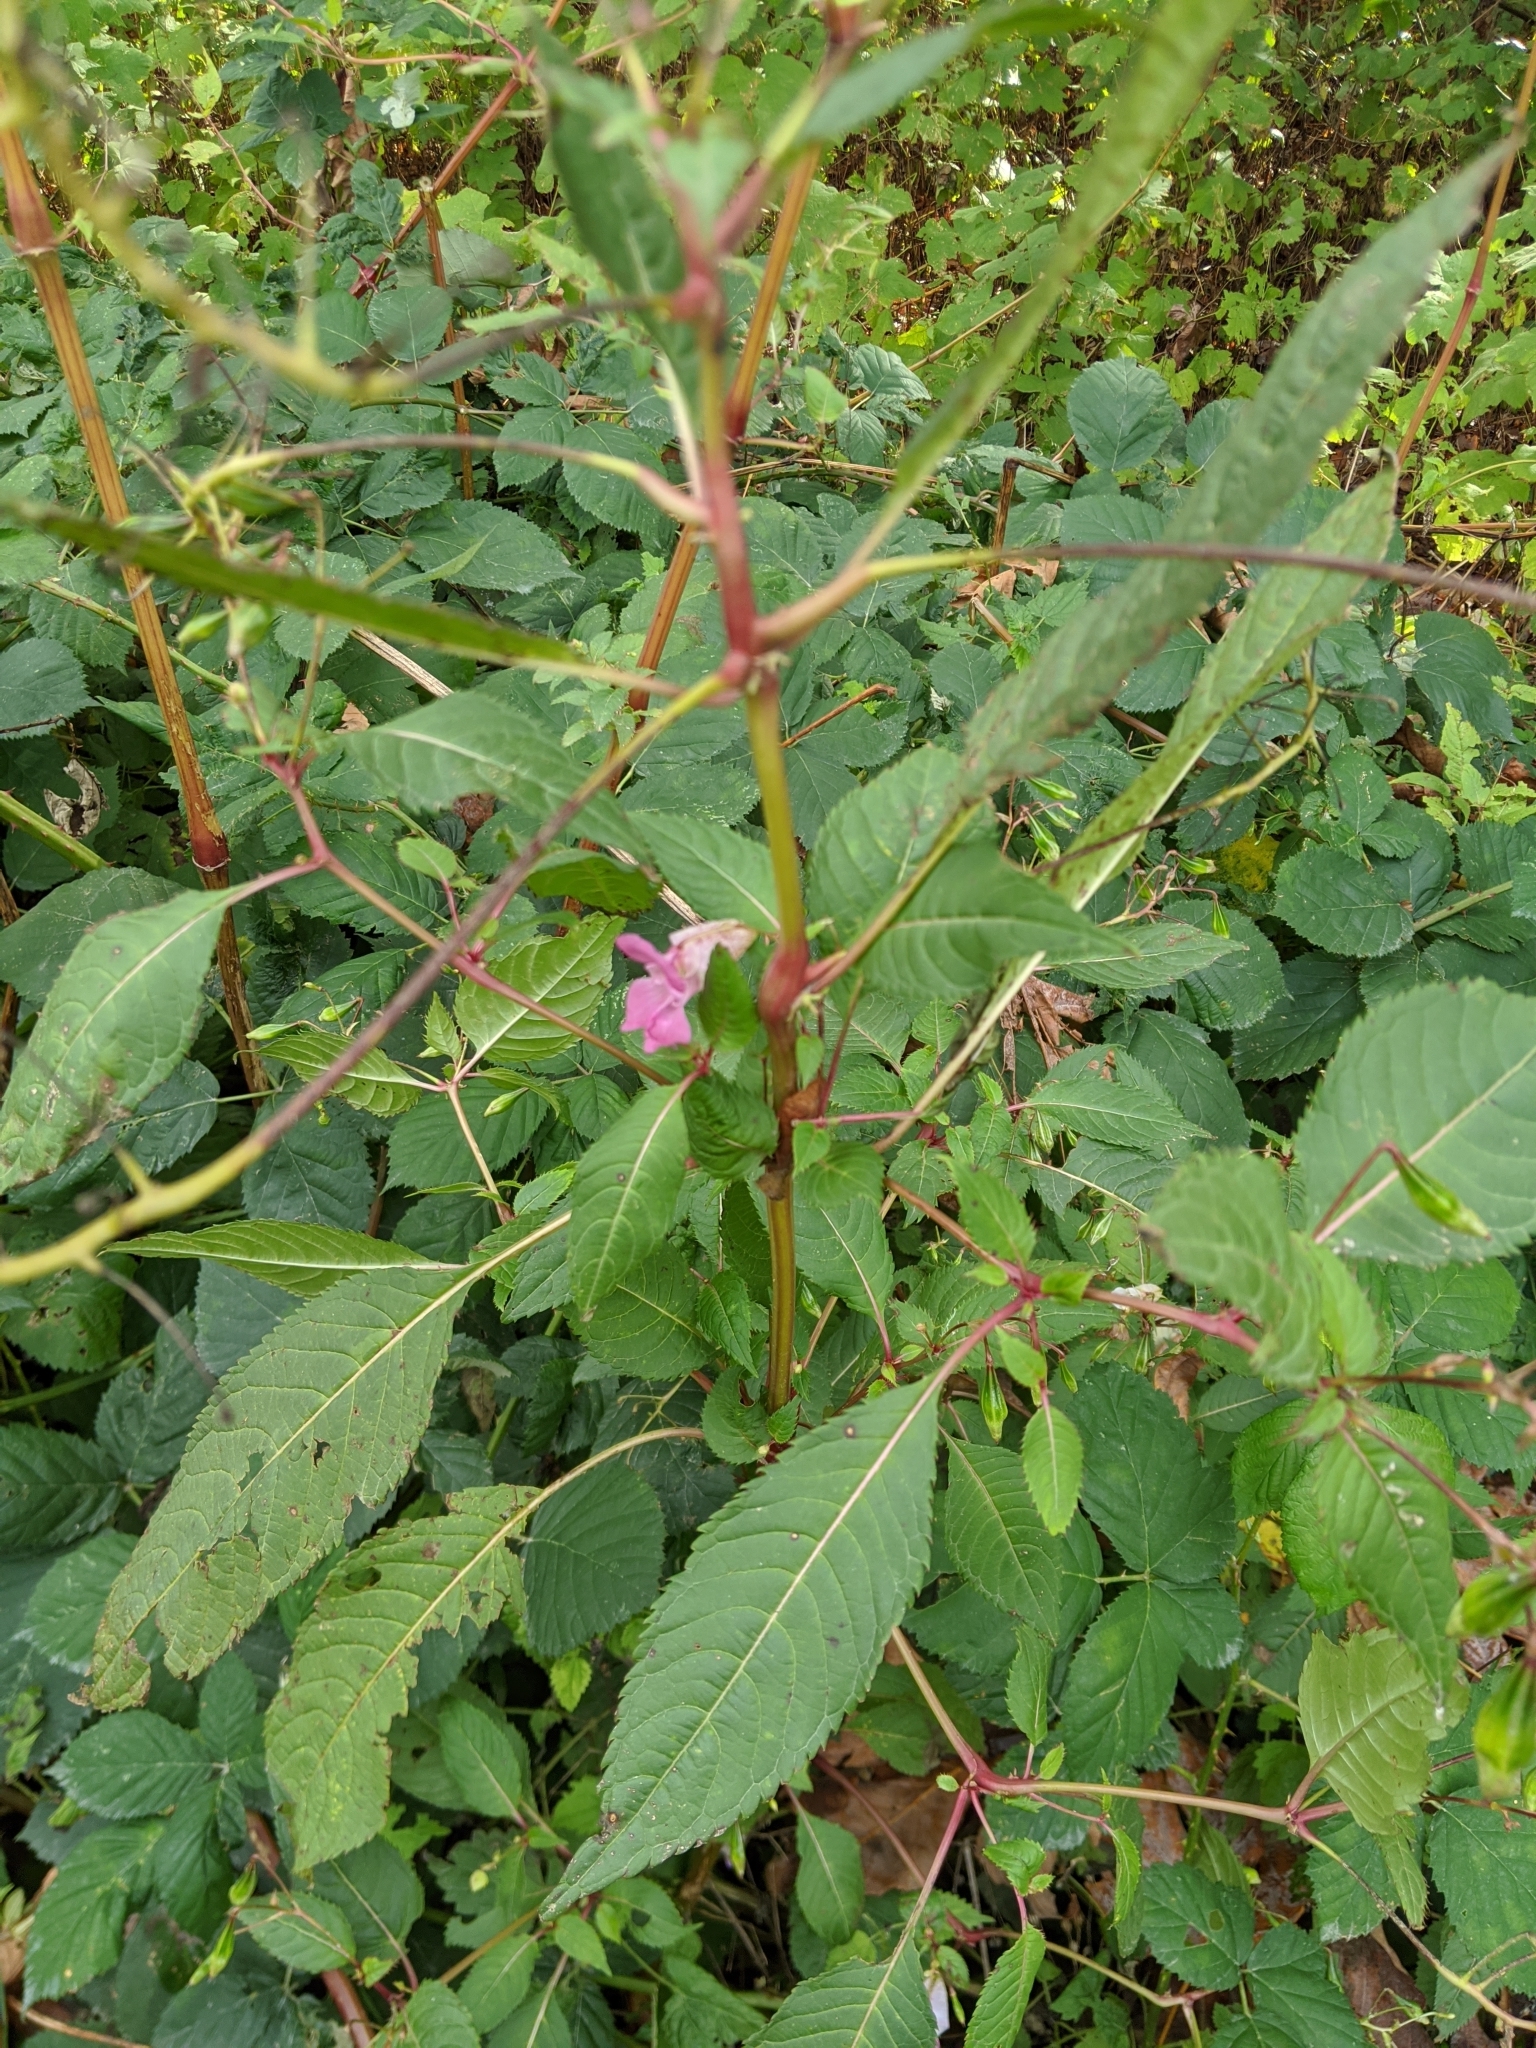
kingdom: Plantae
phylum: Tracheophyta
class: Magnoliopsida
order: Ericales
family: Balsaminaceae
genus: Impatiens
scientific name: Impatiens glandulifera
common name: Himalayan balsam
